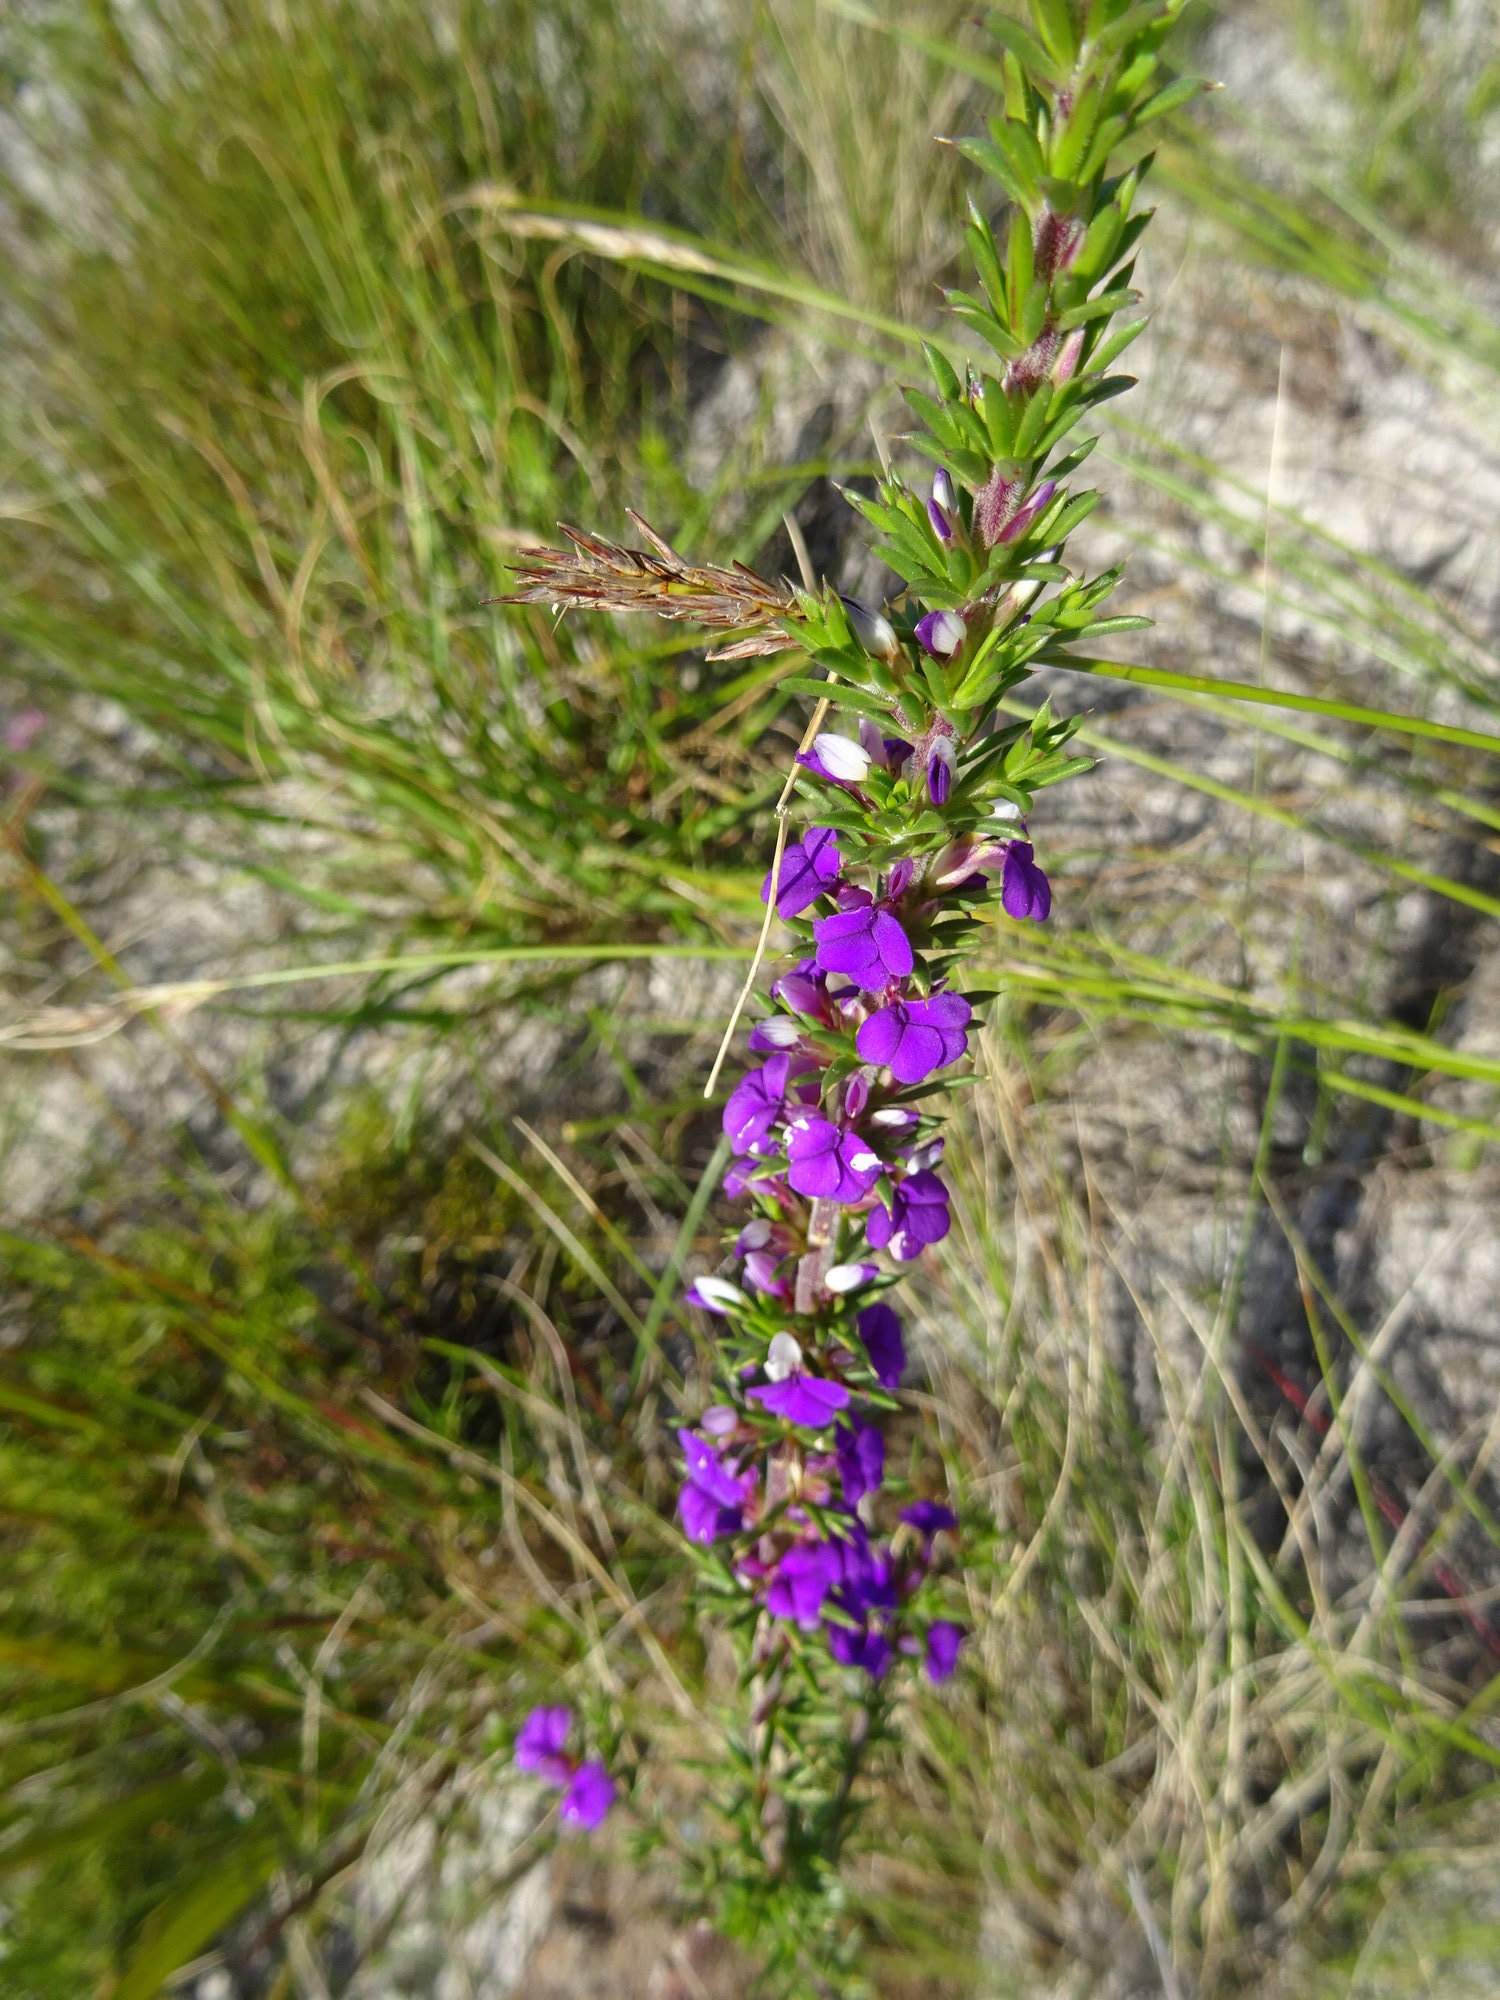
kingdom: Plantae
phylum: Tracheophyta
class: Magnoliopsida
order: Fabales
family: Polygalaceae
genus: Muraltia
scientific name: Muraltia heisteria
